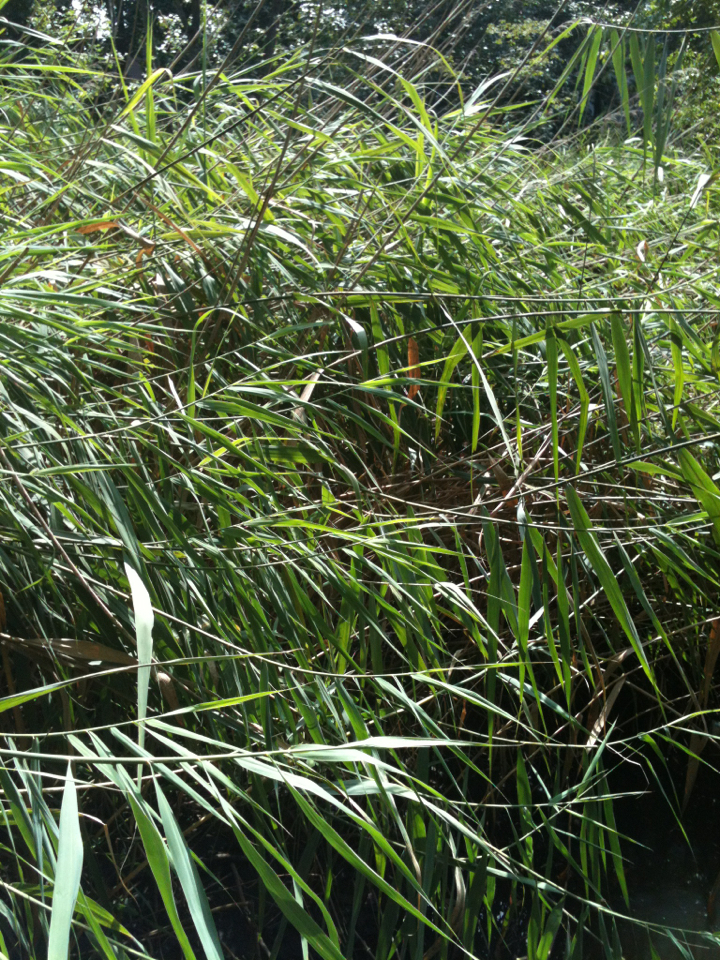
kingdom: Plantae
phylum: Tracheophyta
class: Liliopsida
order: Poales
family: Poaceae
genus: Phragmites
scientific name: Phragmites australis
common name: Common reed
